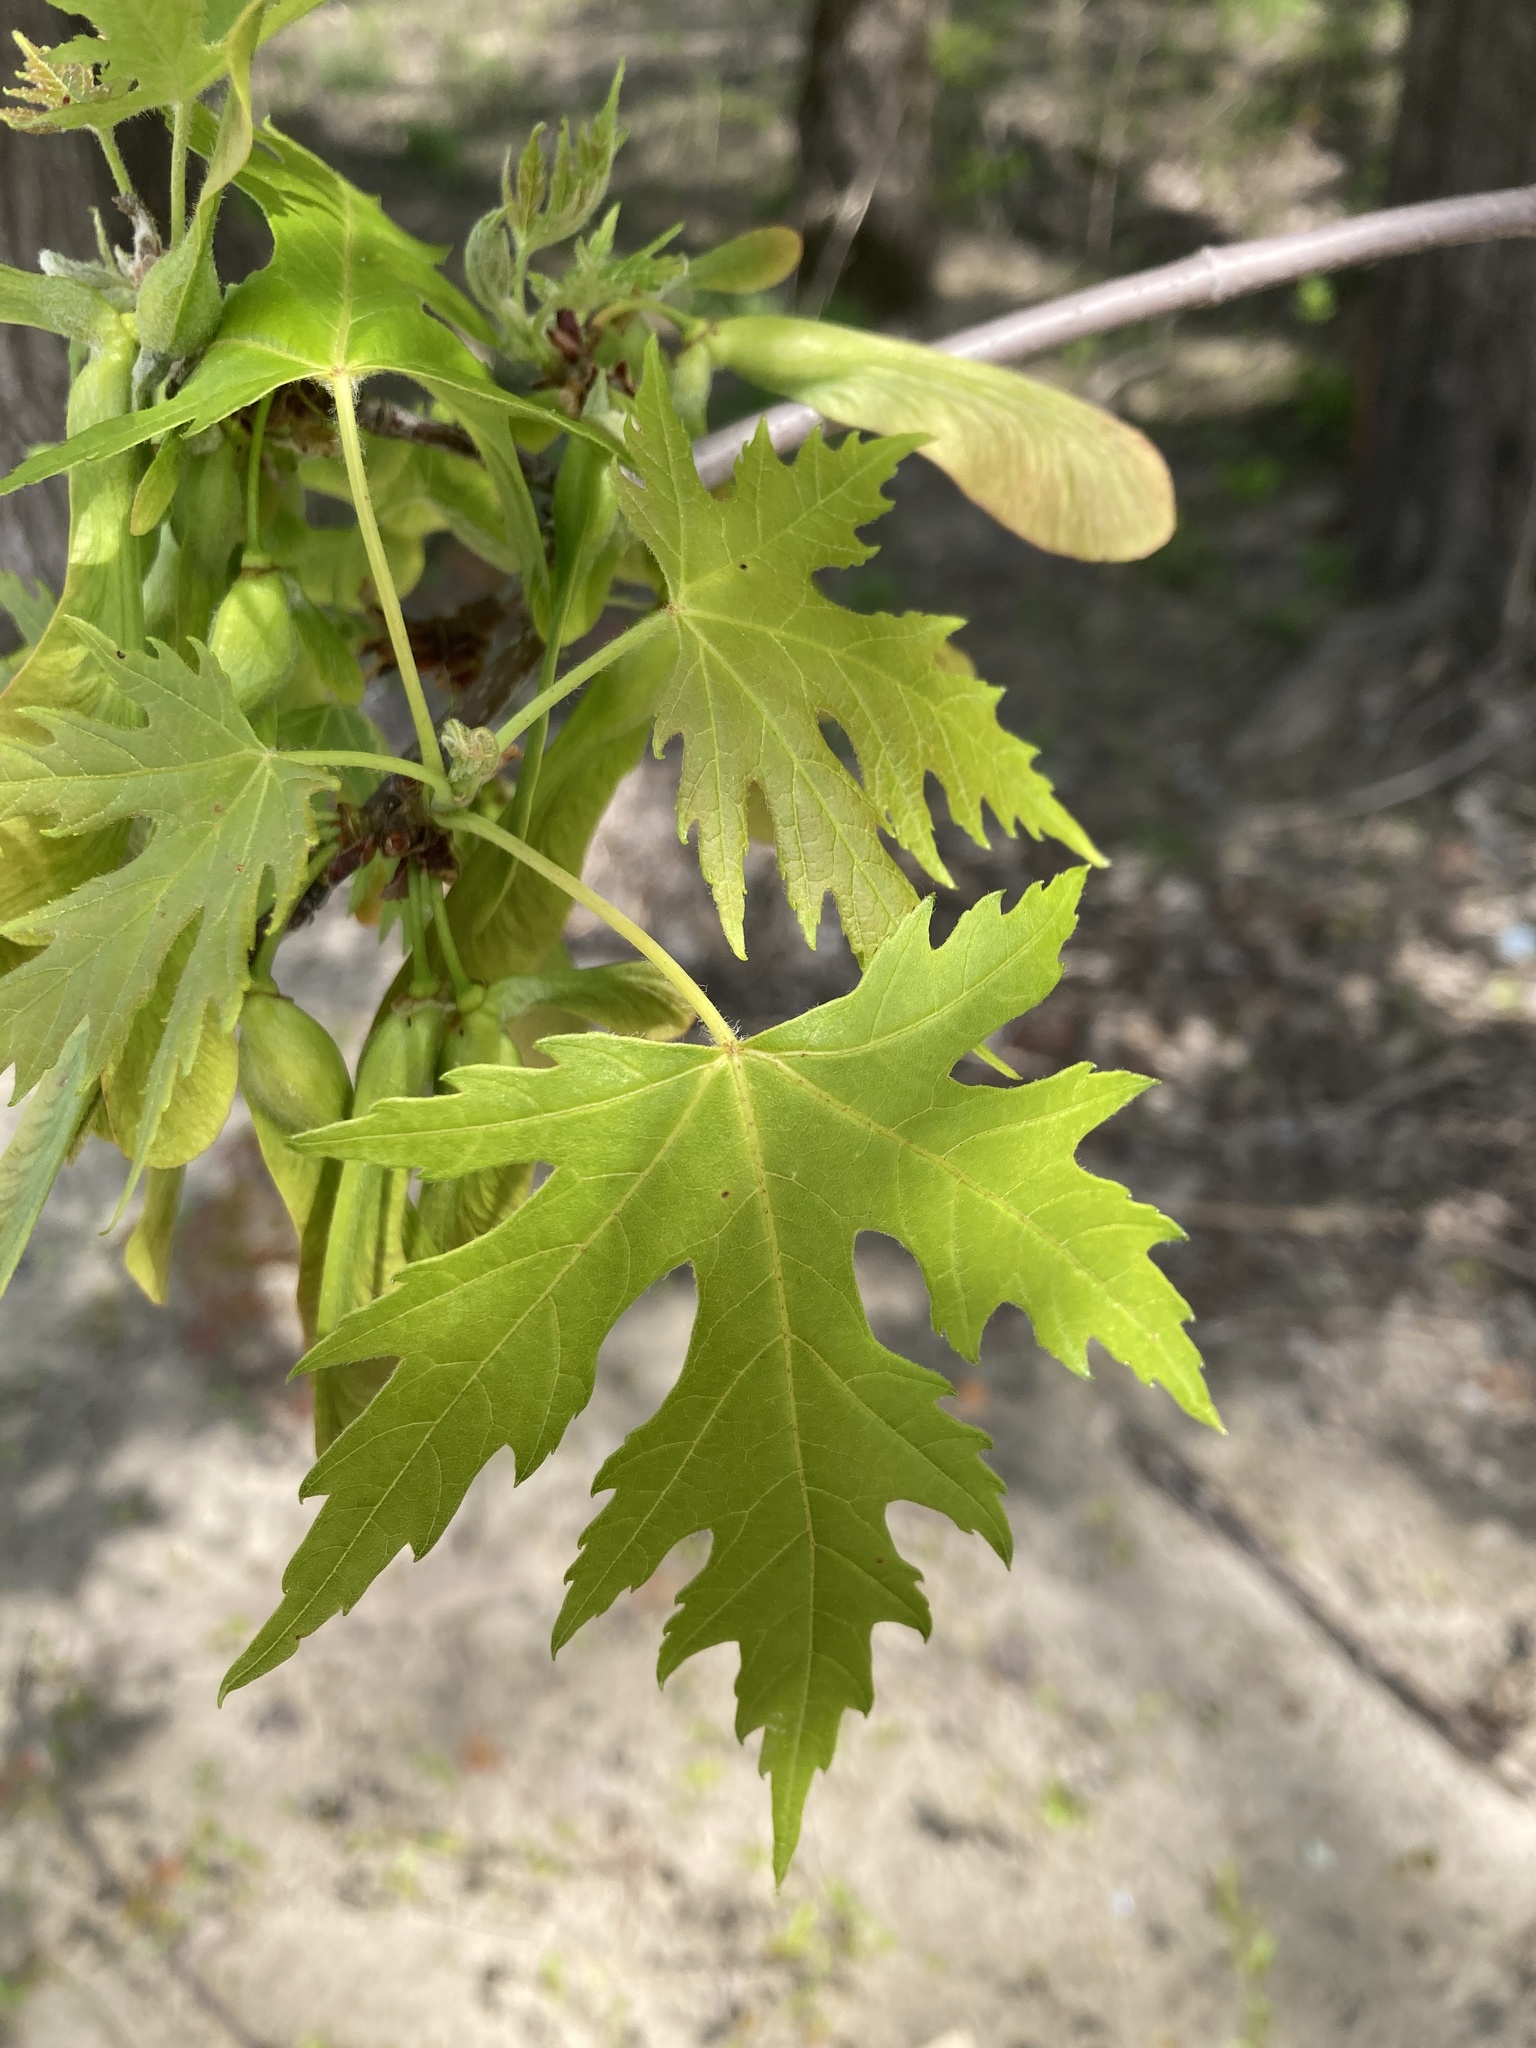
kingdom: Plantae
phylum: Tracheophyta
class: Magnoliopsida
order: Sapindales
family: Sapindaceae
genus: Acer
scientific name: Acer saccharinum
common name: Silver maple
